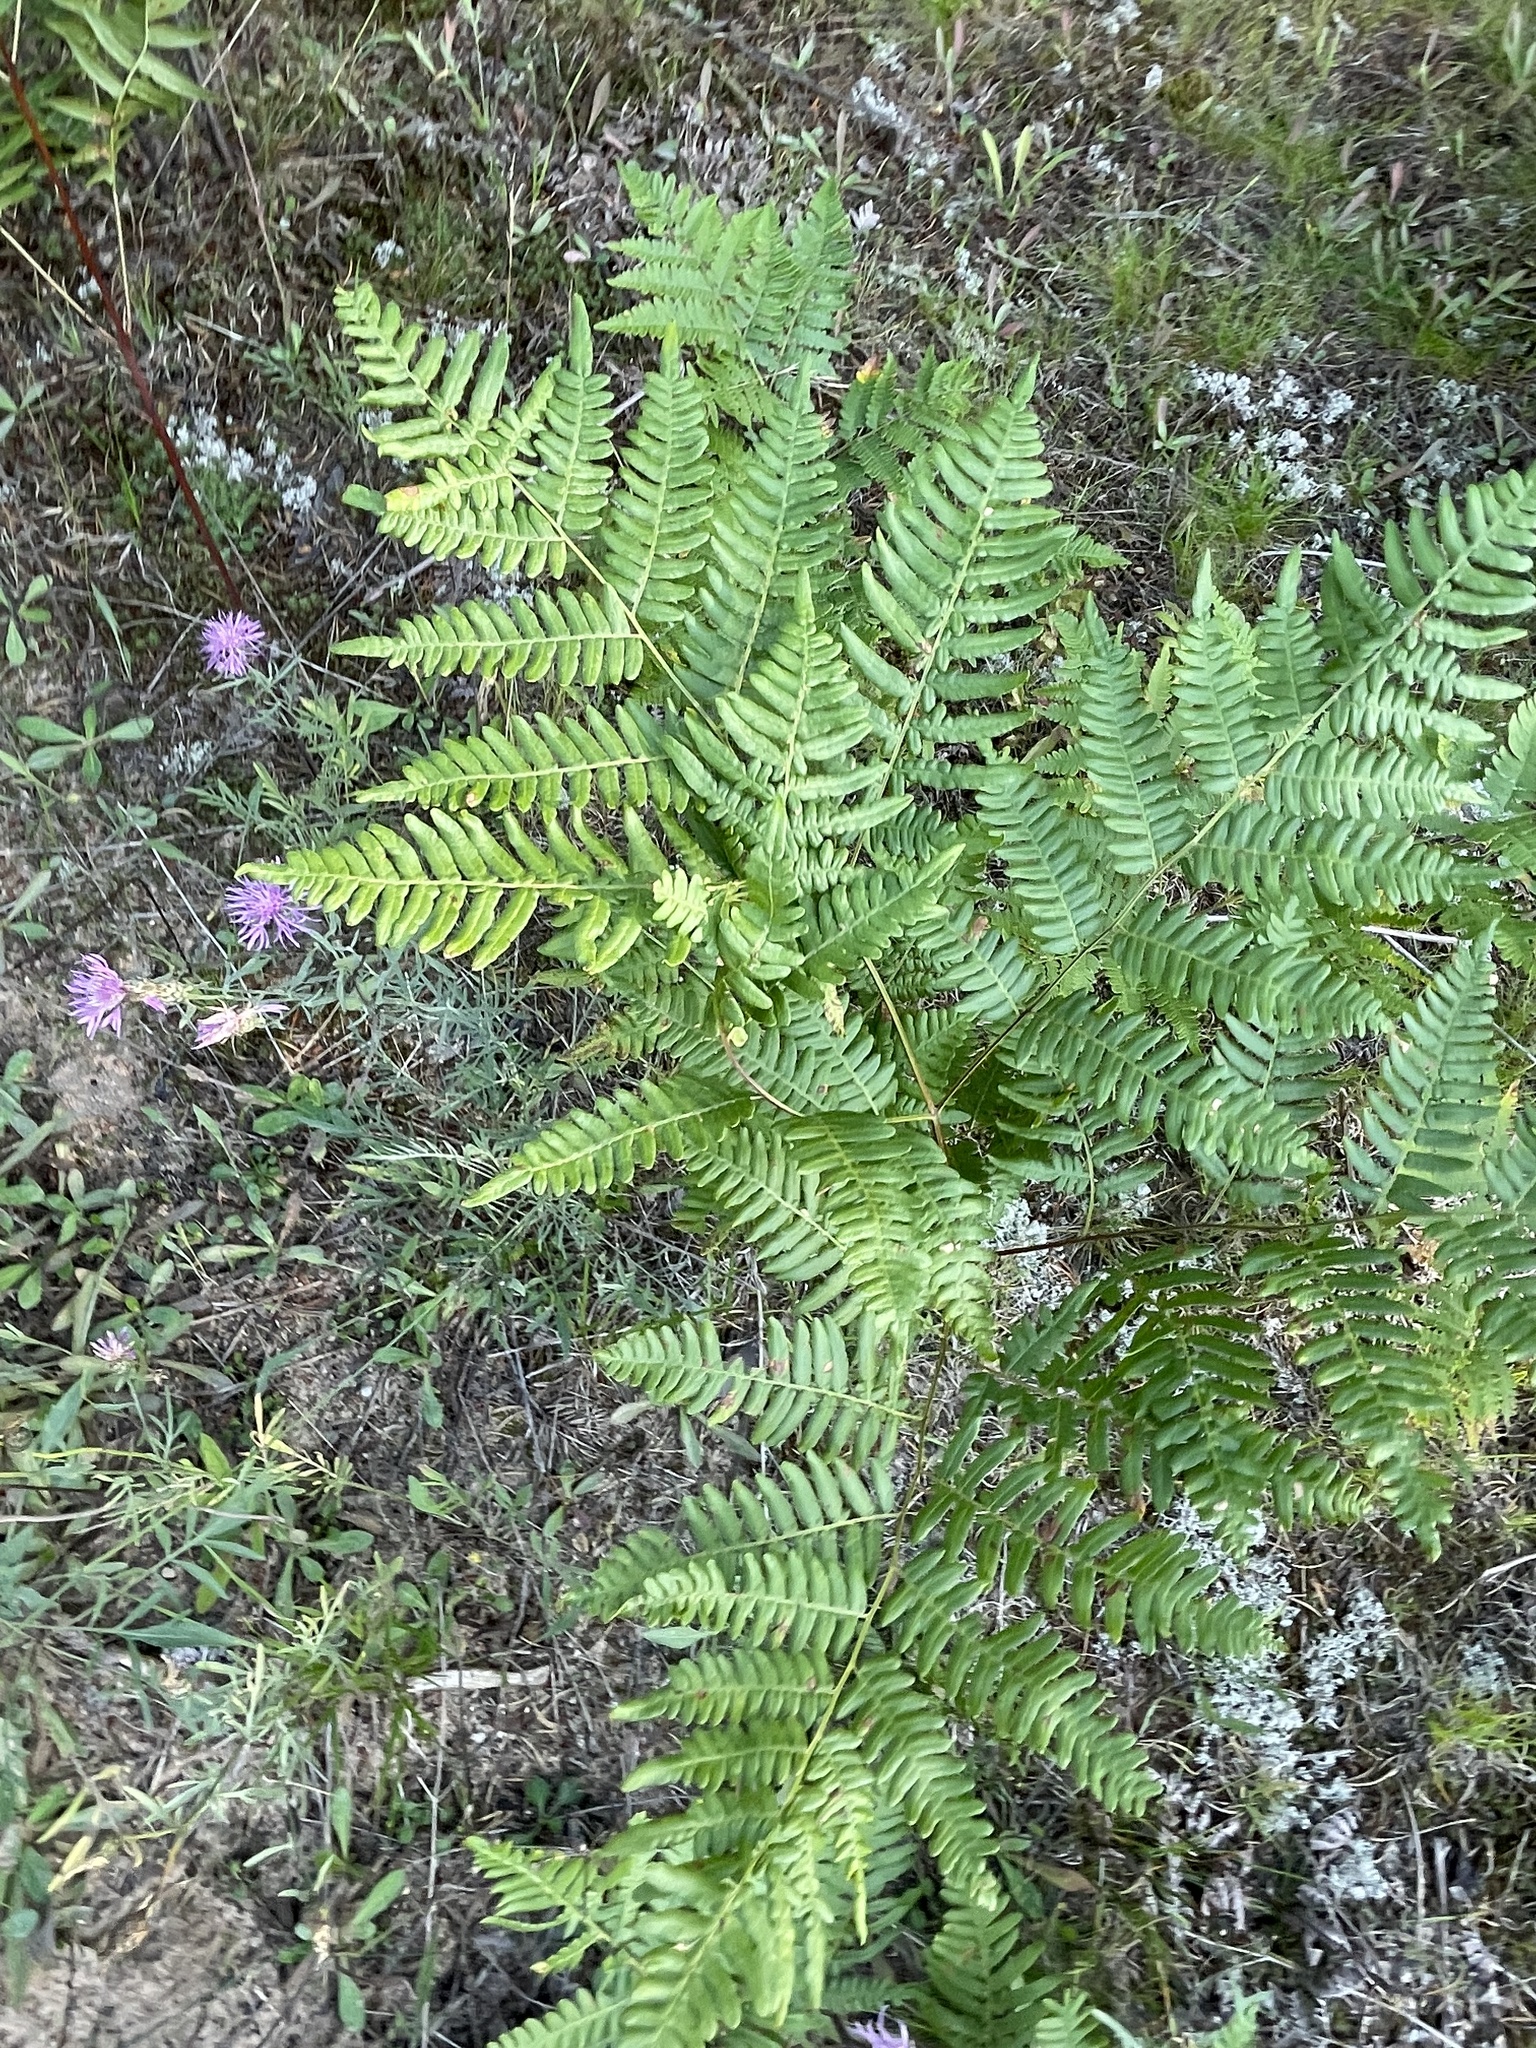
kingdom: Plantae
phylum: Tracheophyta
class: Polypodiopsida
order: Polypodiales
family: Dennstaedtiaceae
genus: Pteridium
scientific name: Pteridium aquilinum
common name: Bracken
